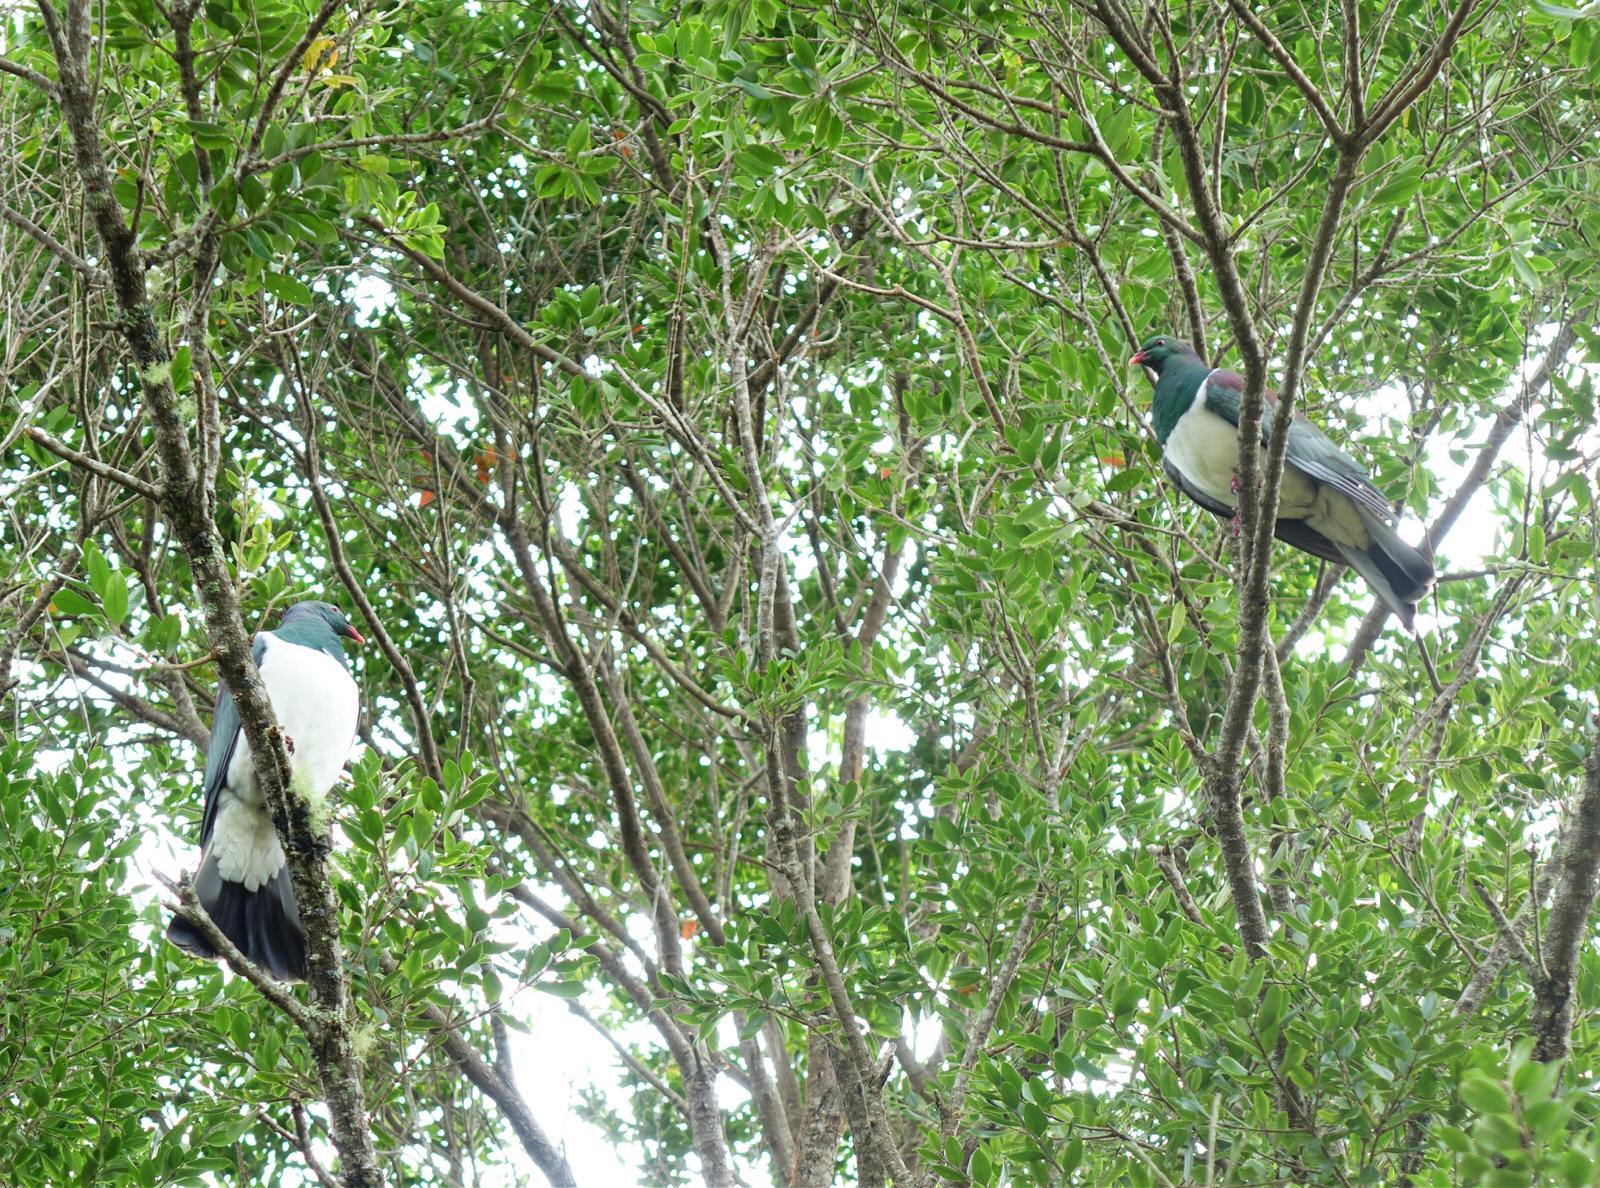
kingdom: Animalia
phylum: Chordata
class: Aves
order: Columbiformes
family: Columbidae
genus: Hemiphaga
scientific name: Hemiphaga novaeseelandiae
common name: New zealand pigeon
